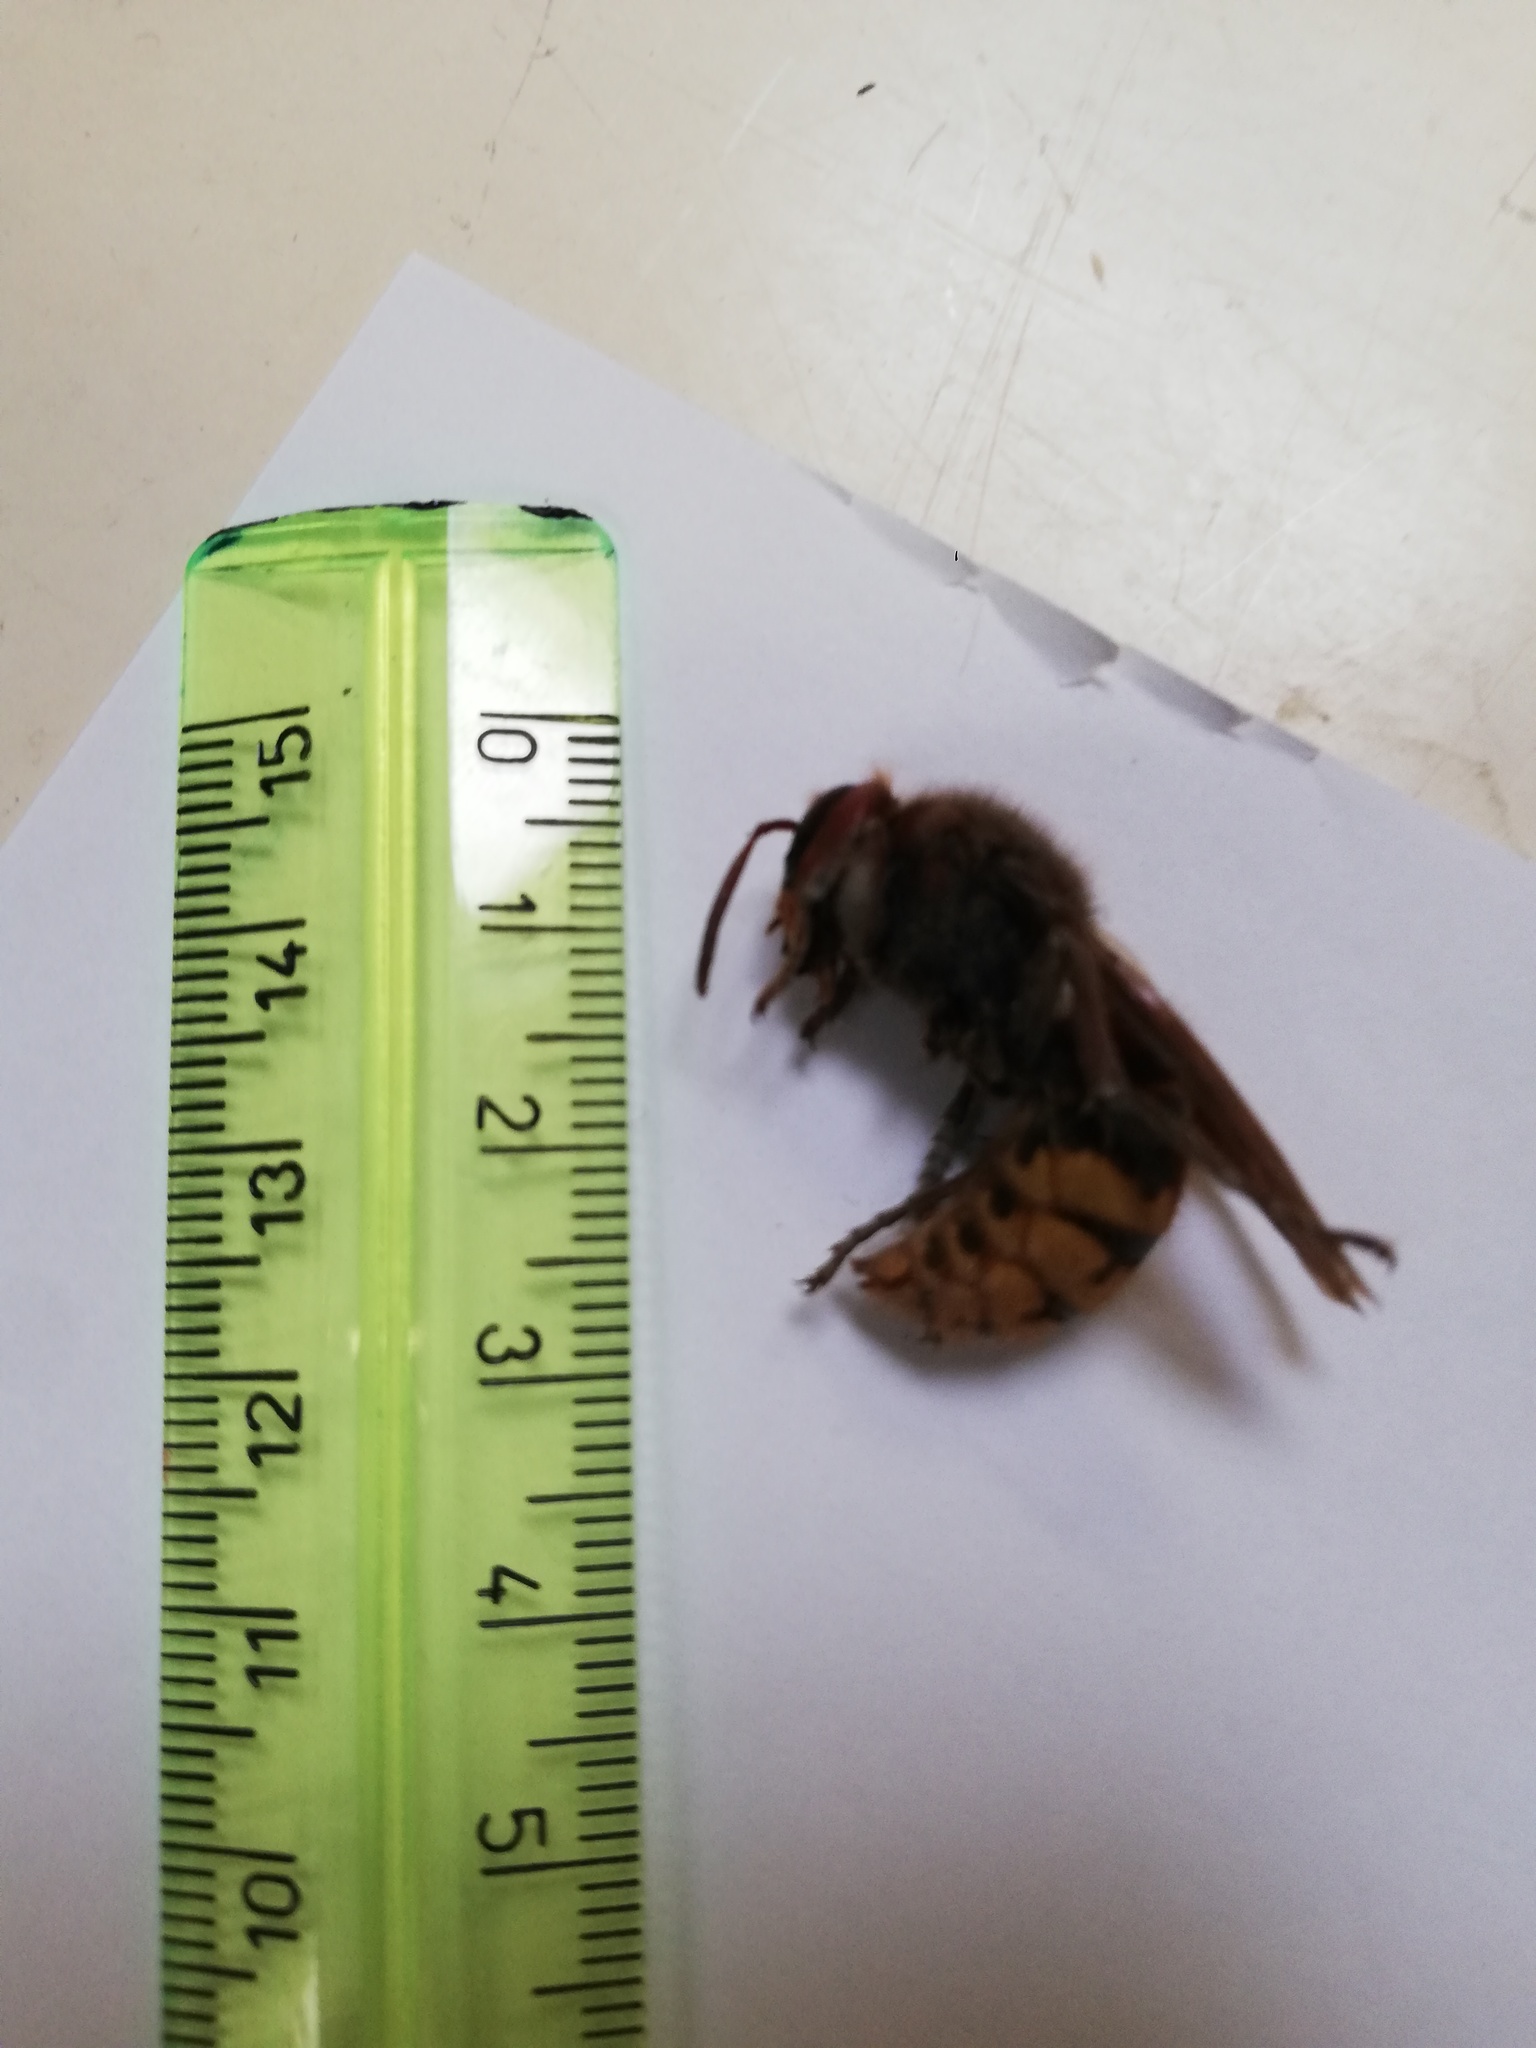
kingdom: Animalia
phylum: Arthropoda
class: Insecta
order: Hymenoptera
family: Vespidae
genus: Vespa
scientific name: Vespa crabro
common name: Hornet
